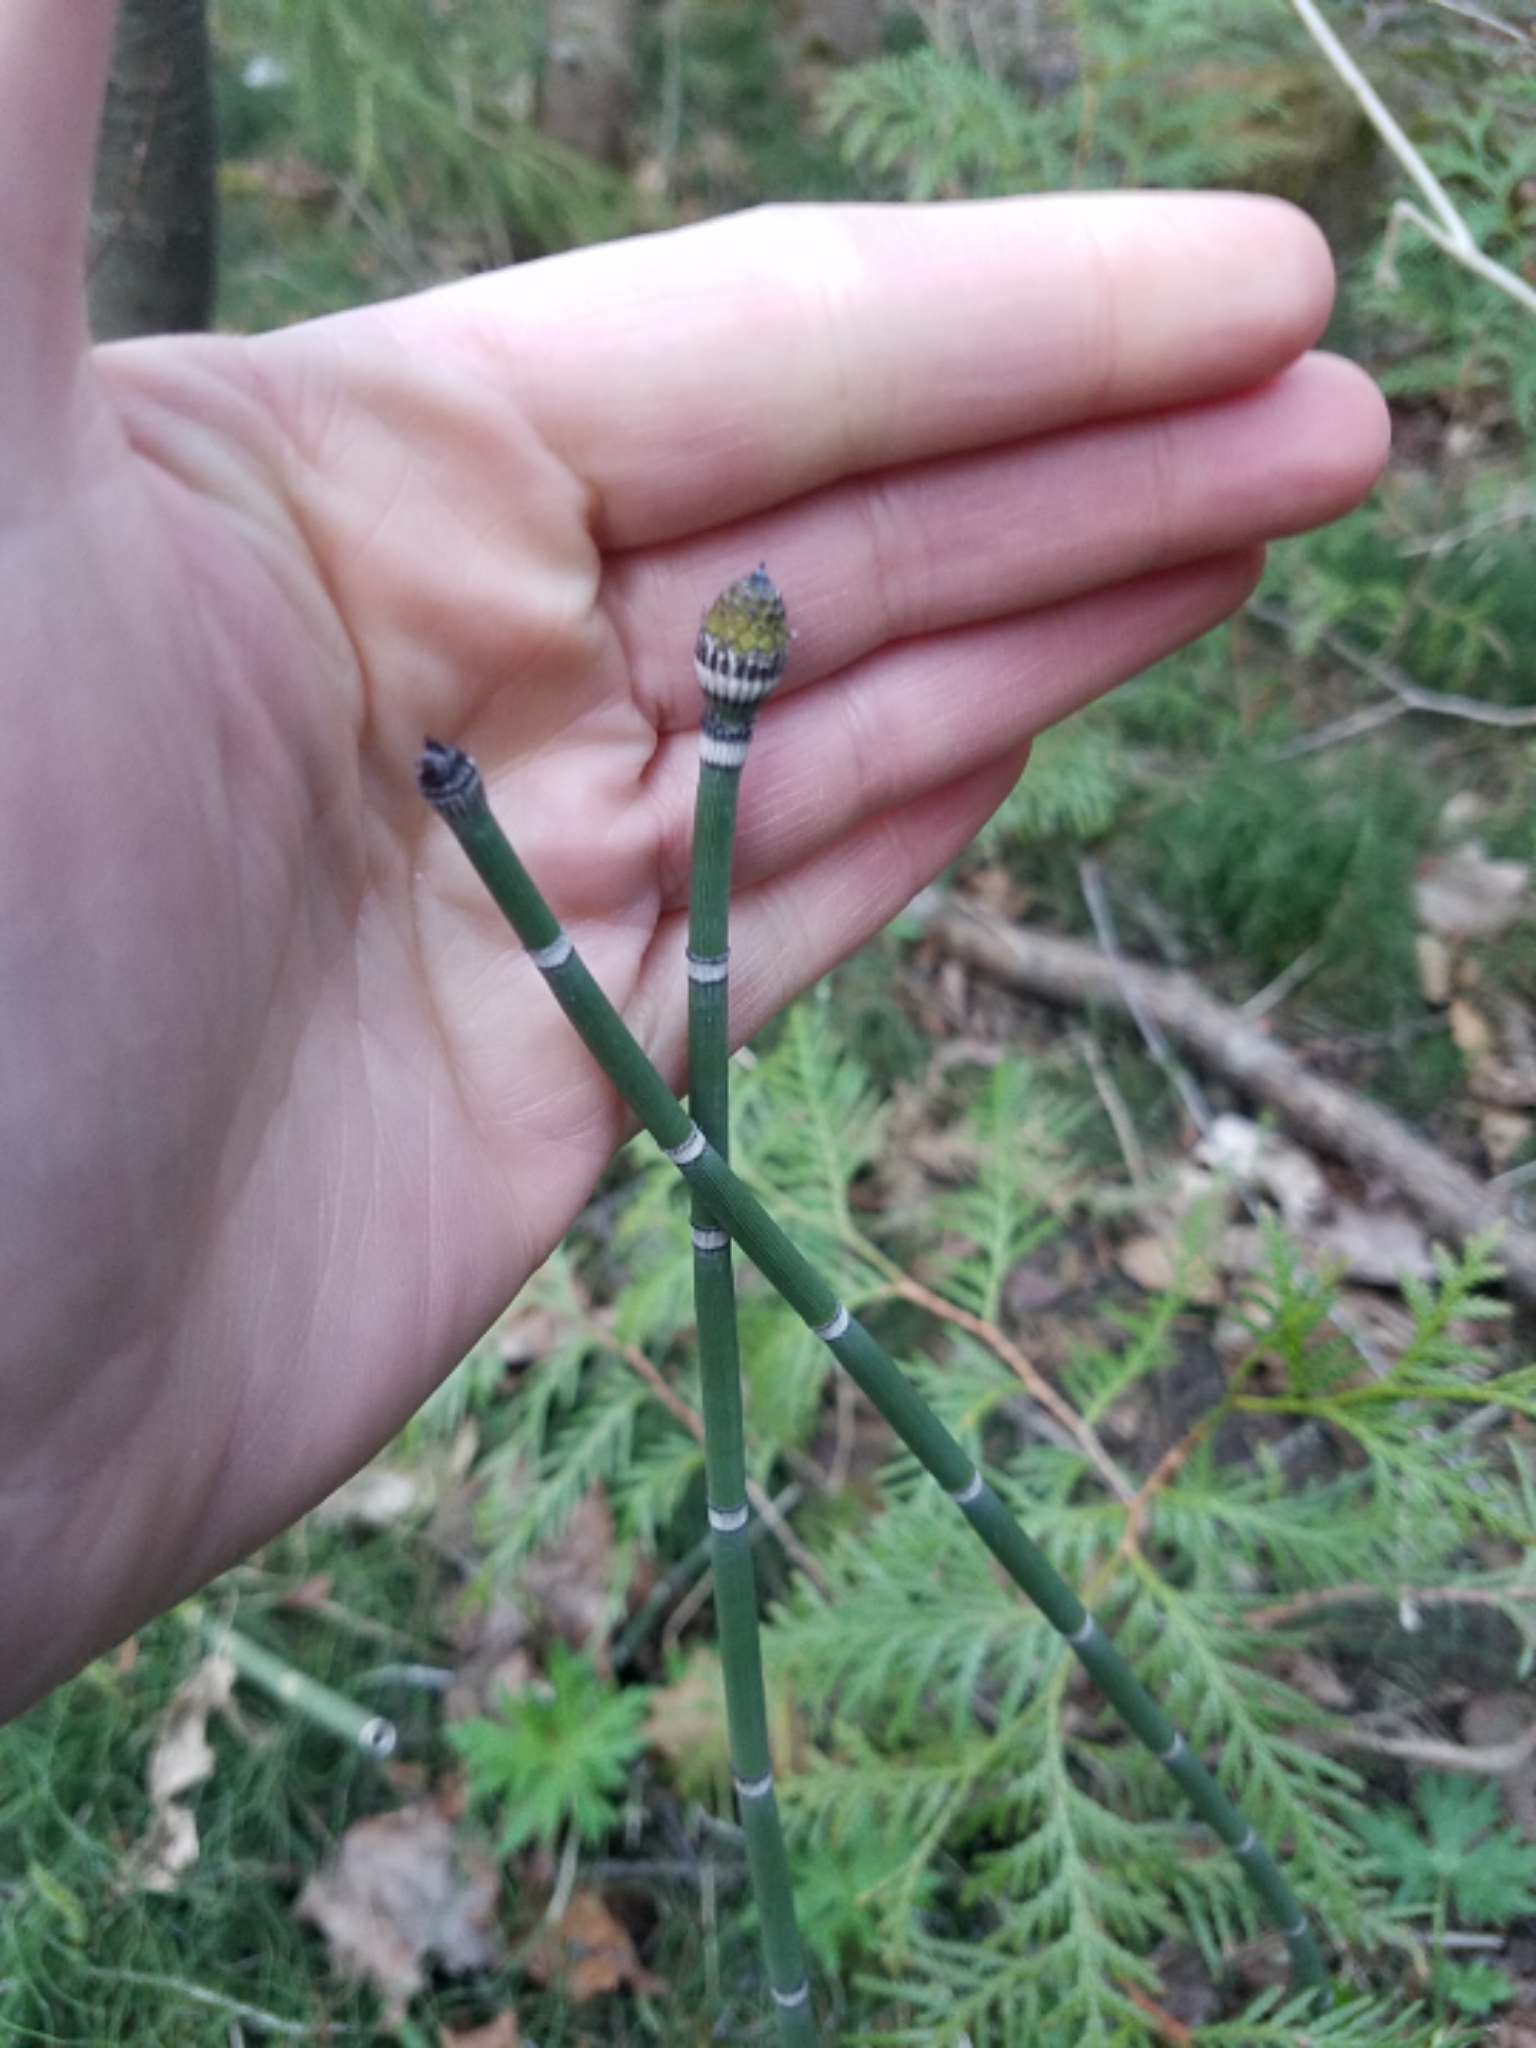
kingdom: Plantae
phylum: Tracheophyta
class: Polypodiopsida
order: Equisetales
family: Equisetaceae
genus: Equisetum
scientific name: Equisetum hyemale
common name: Rough horsetail
